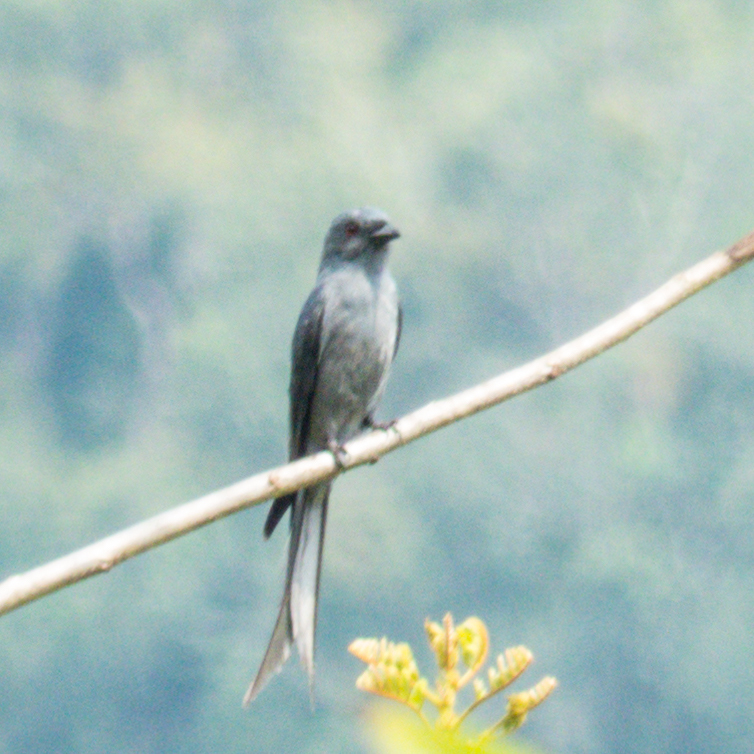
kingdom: Animalia
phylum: Chordata
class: Aves
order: Passeriformes
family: Dicruridae
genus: Dicrurus
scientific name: Dicrurus leucophaeus
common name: Ashy drongo
